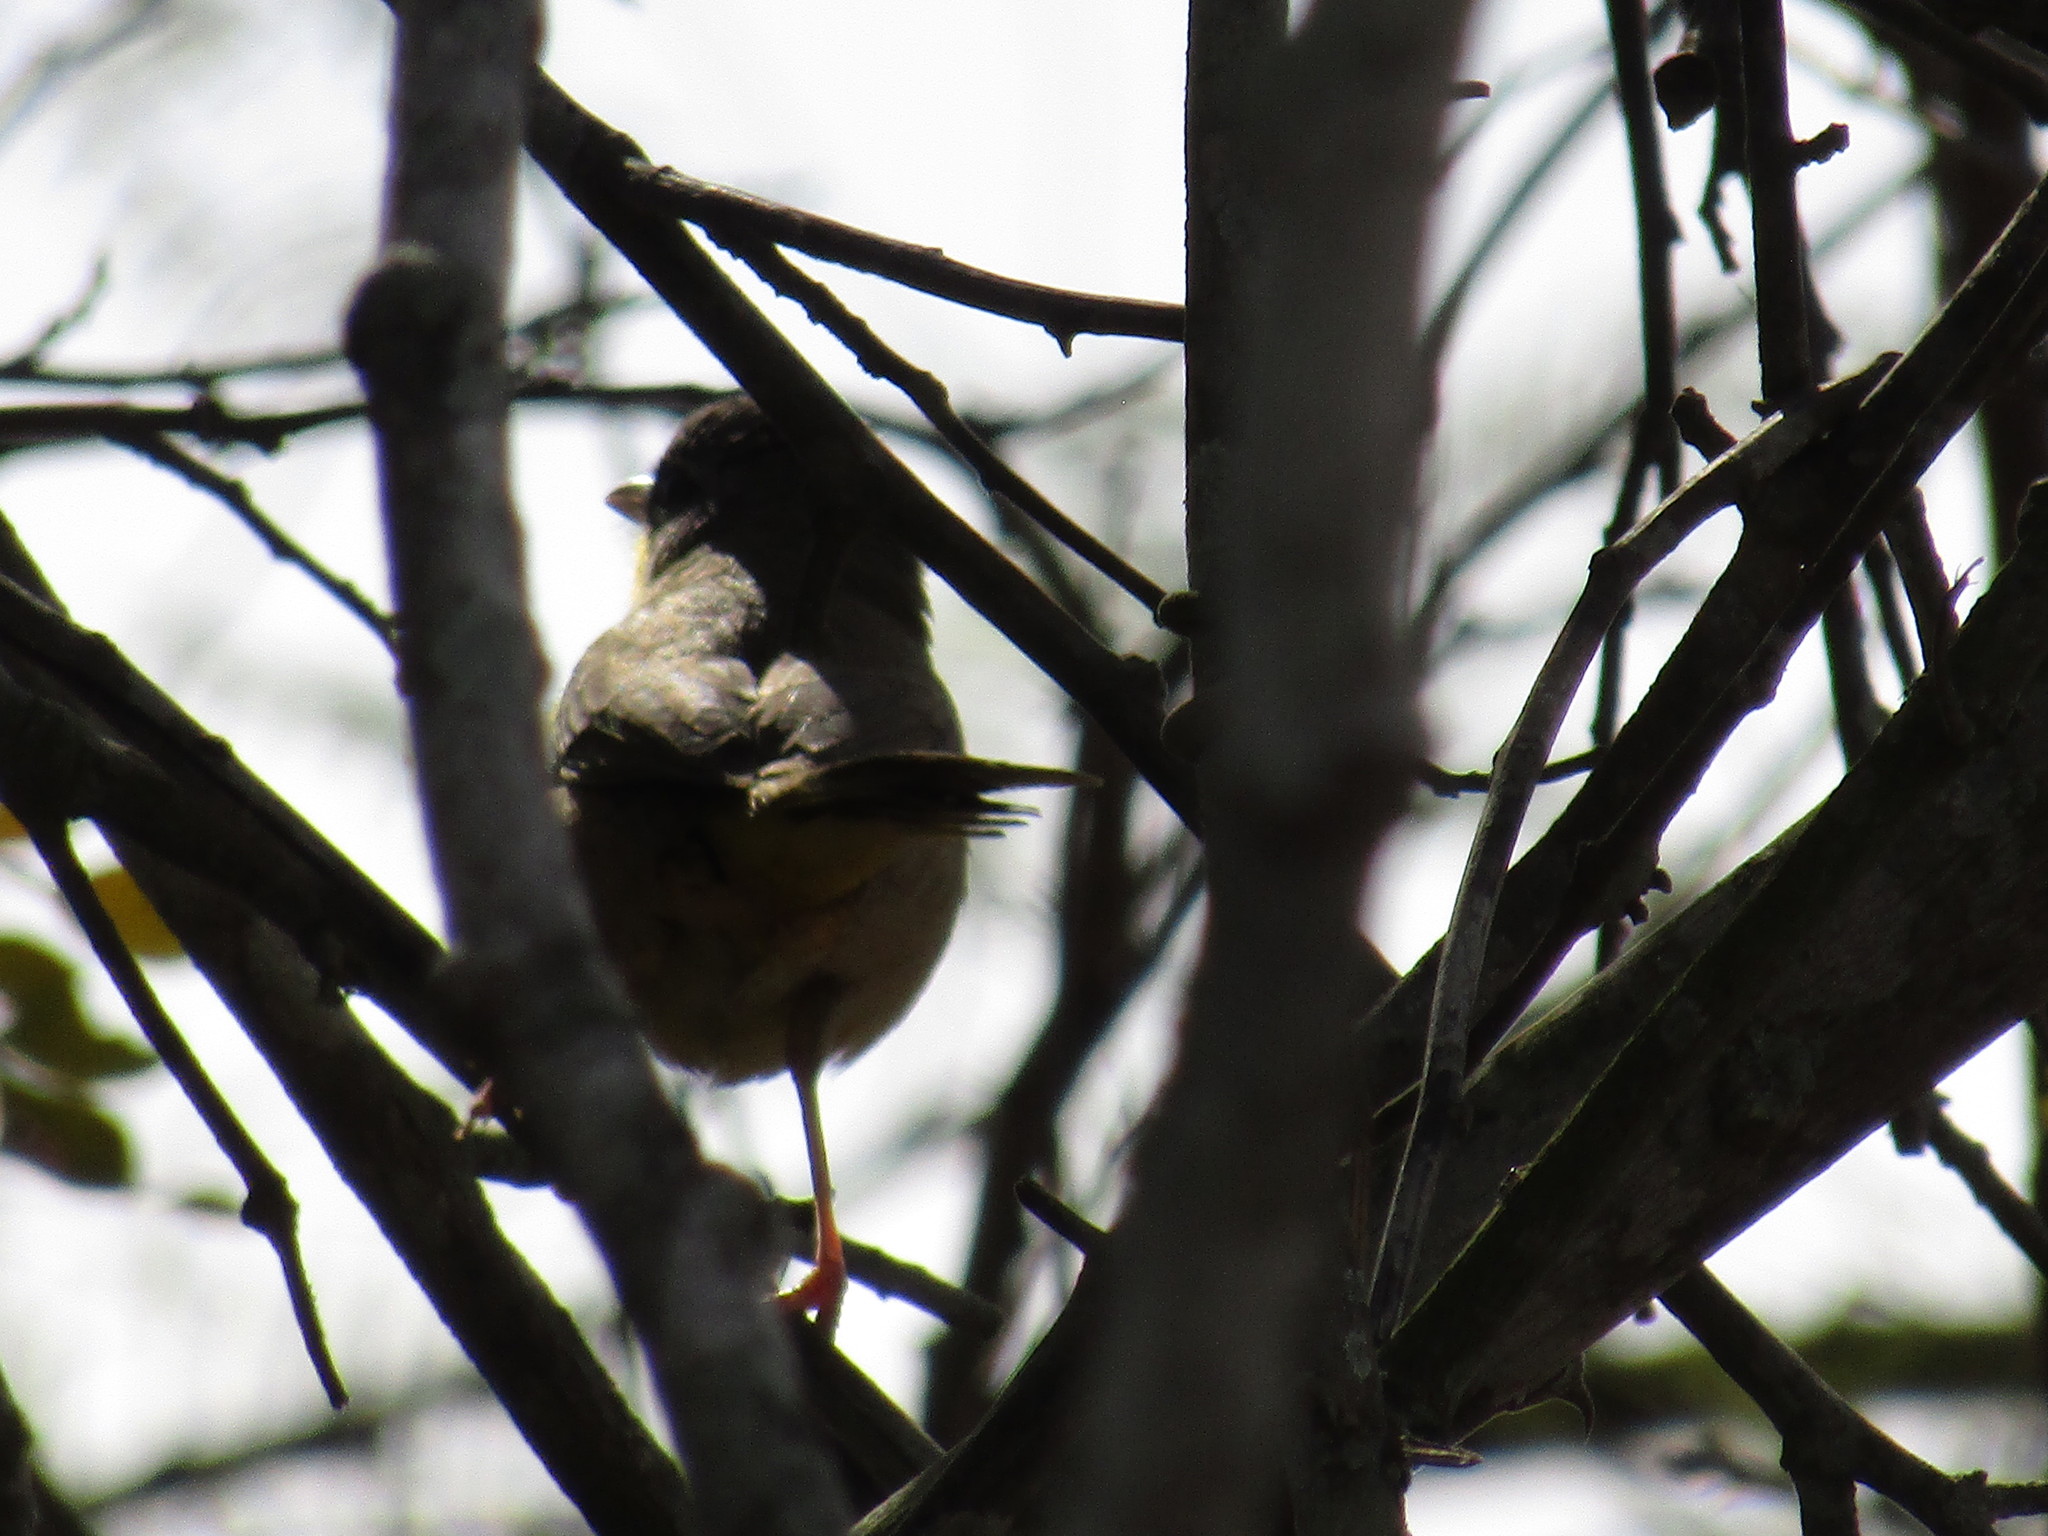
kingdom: Animalia
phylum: Chordata
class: Aves
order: Passeriformes
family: Parulidae
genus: Geothlypis
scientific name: Geothlypis poliocephala
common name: Gray-crowned yellowthroat
